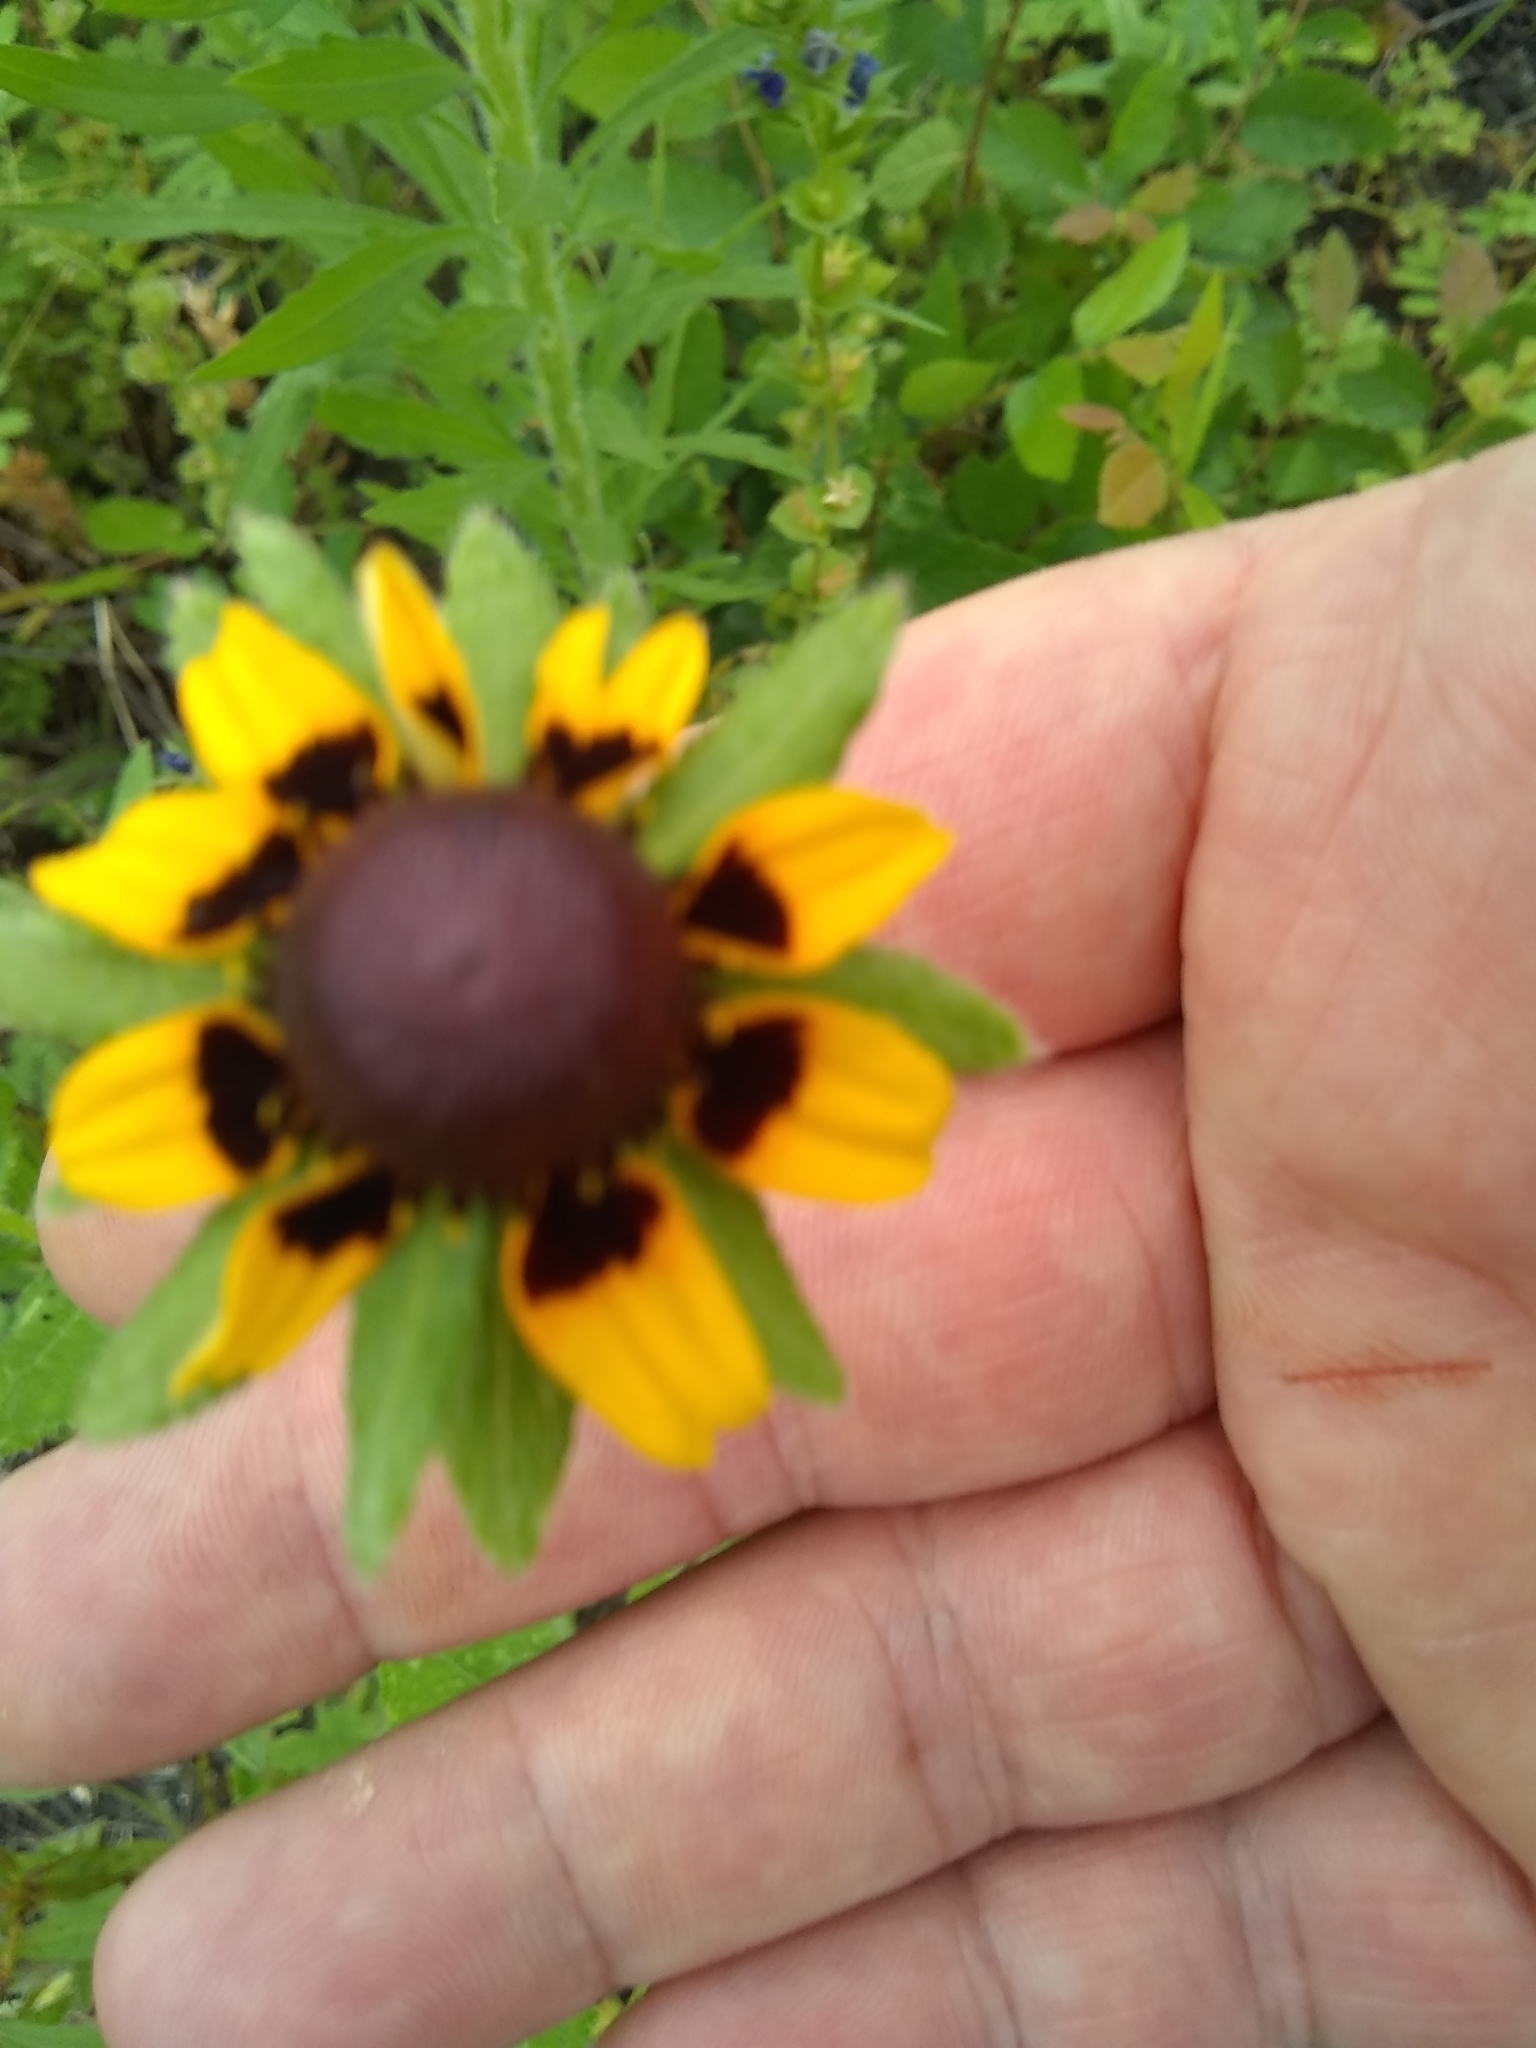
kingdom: Plantae
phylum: Tracheophyta
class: Magnoliopsida
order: Asterales
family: Asteraceae
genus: Rudbeckia
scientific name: Rudbeckia hirta
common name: Black-eyed-susan
